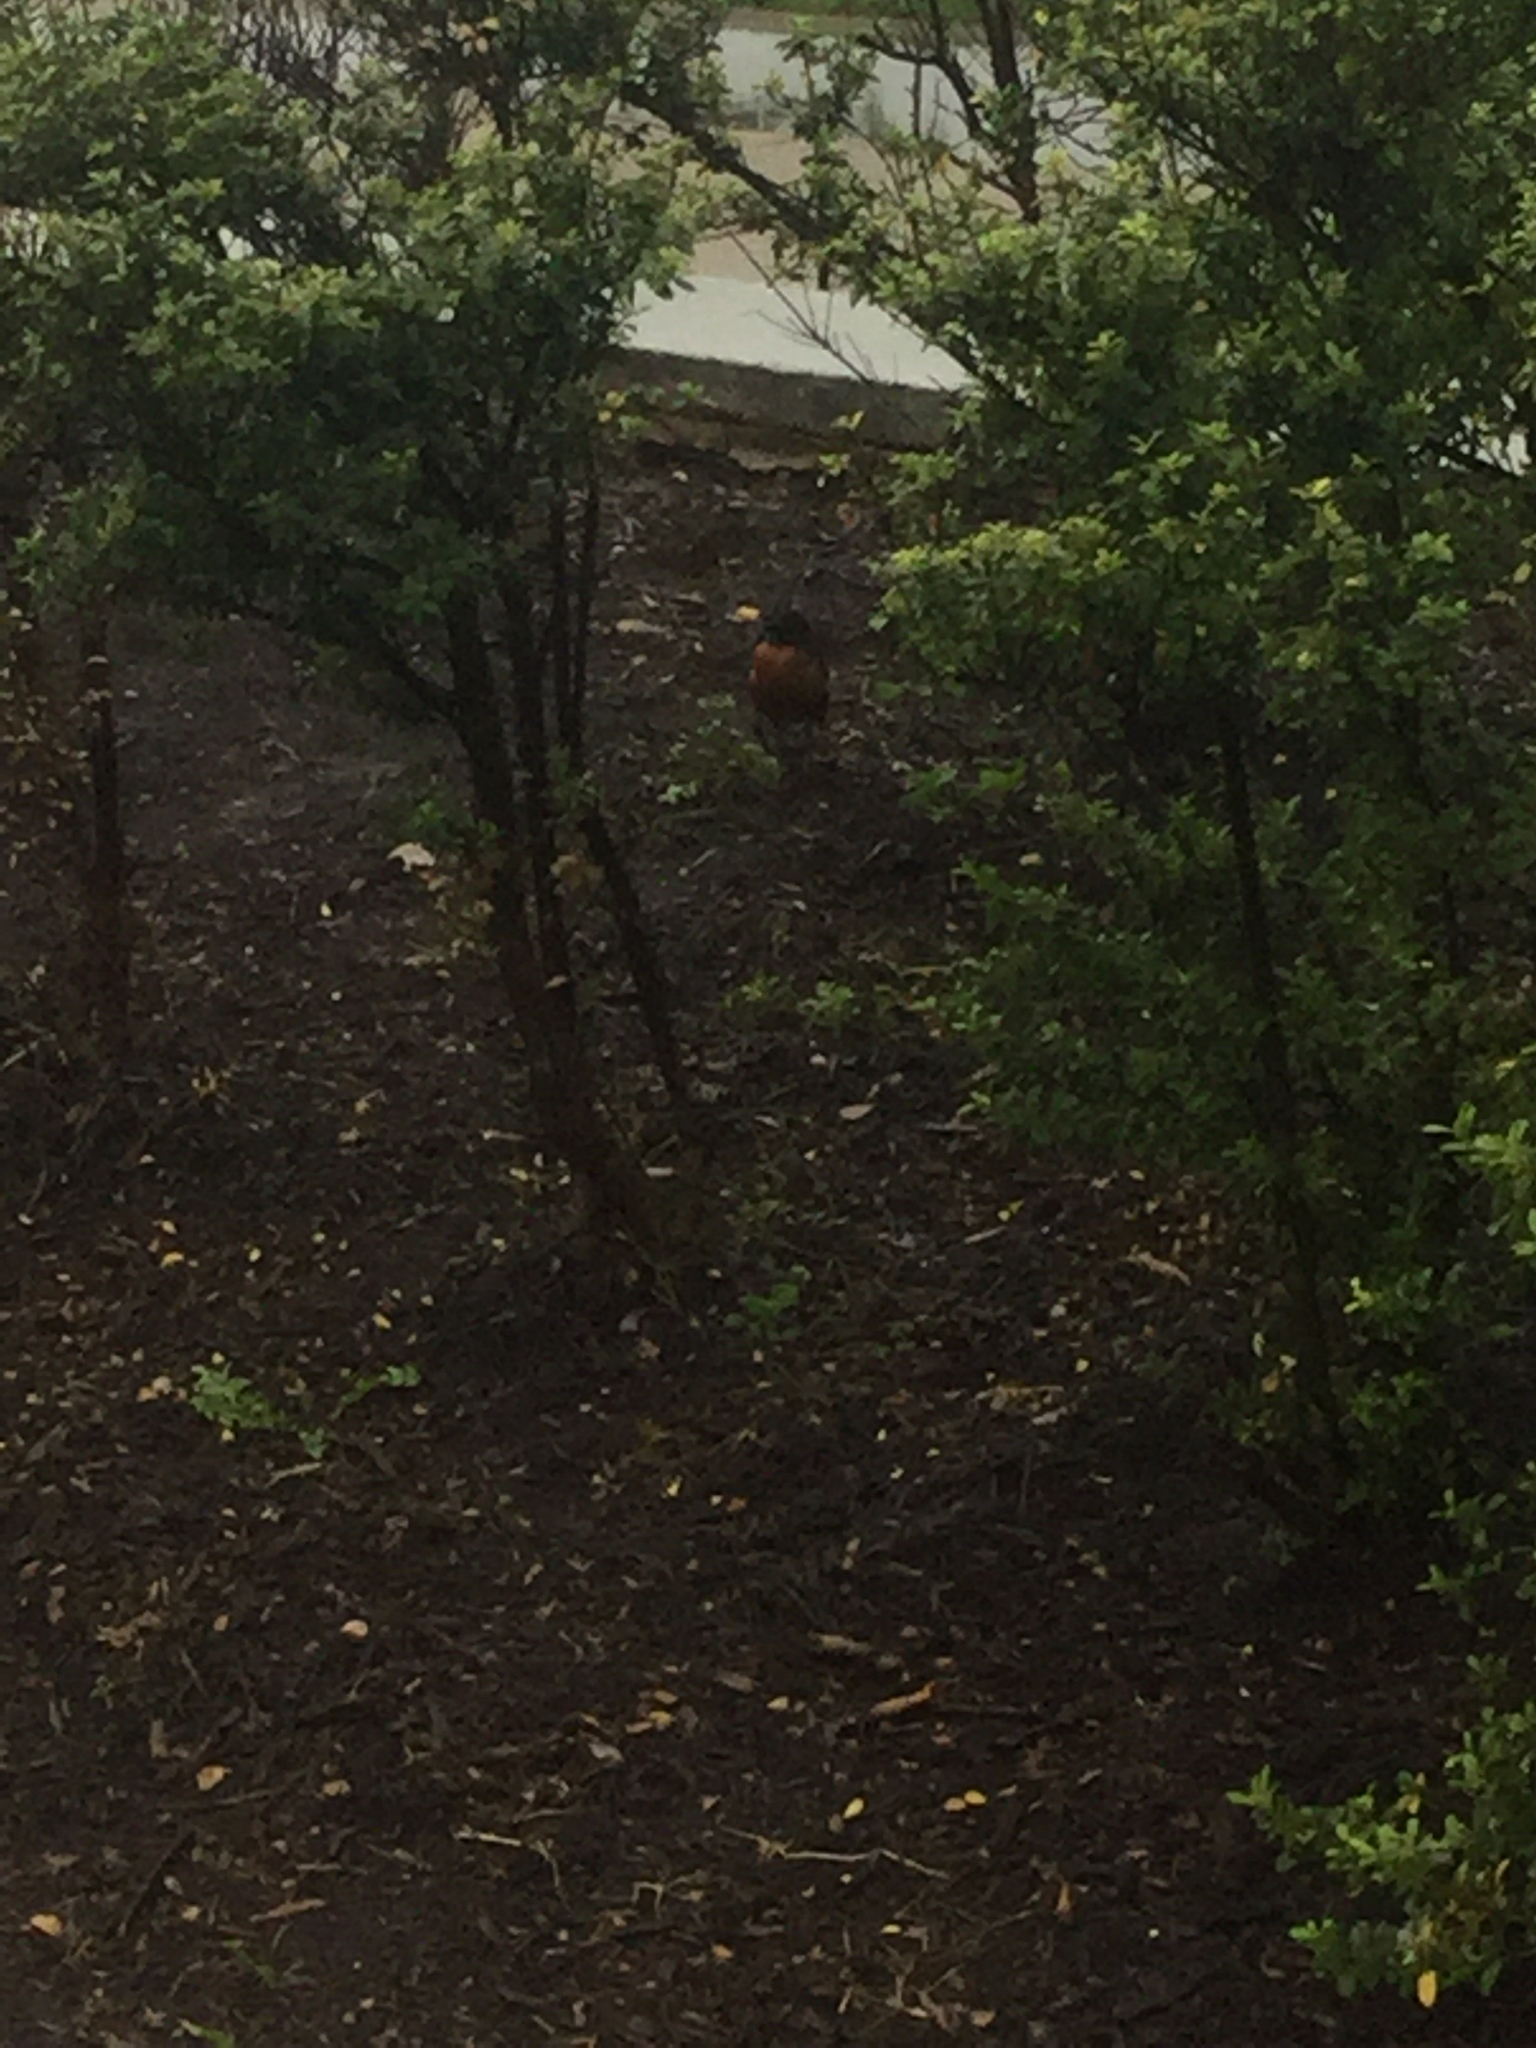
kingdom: Animalia
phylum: Chordata
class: Aves
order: Passeriformes
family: Turdidae
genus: Turdus
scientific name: Turdus migratorius
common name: American robin
